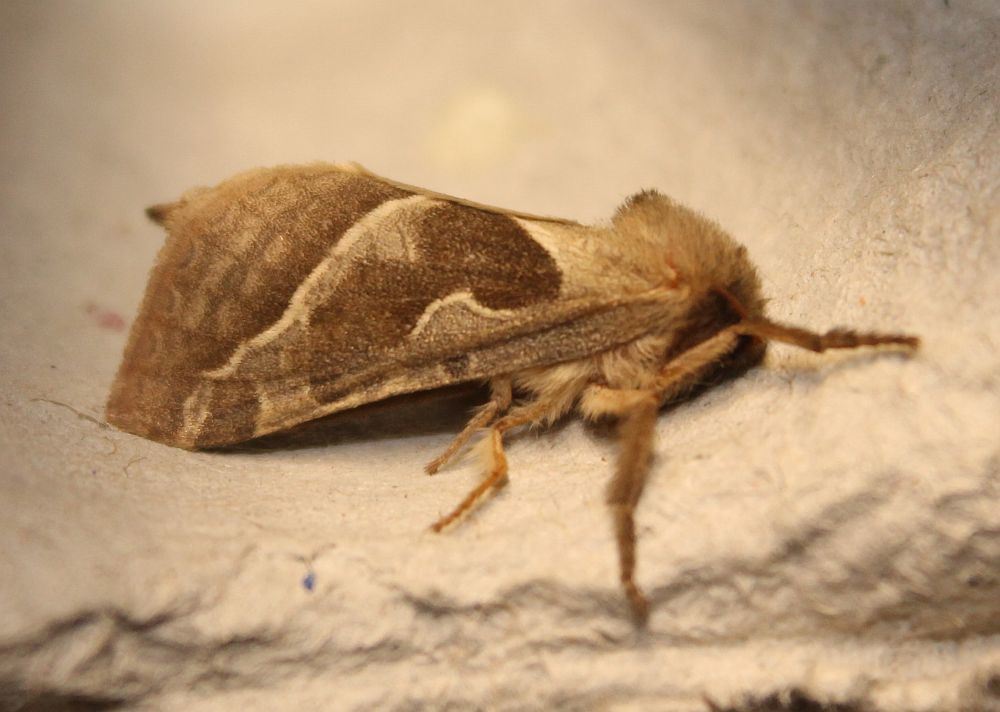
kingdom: Animalia
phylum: Arthropoda
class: Insecta
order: Lepidoptera
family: Hepialidae
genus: Triodia
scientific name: Triodia sylvina
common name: Orange swift
